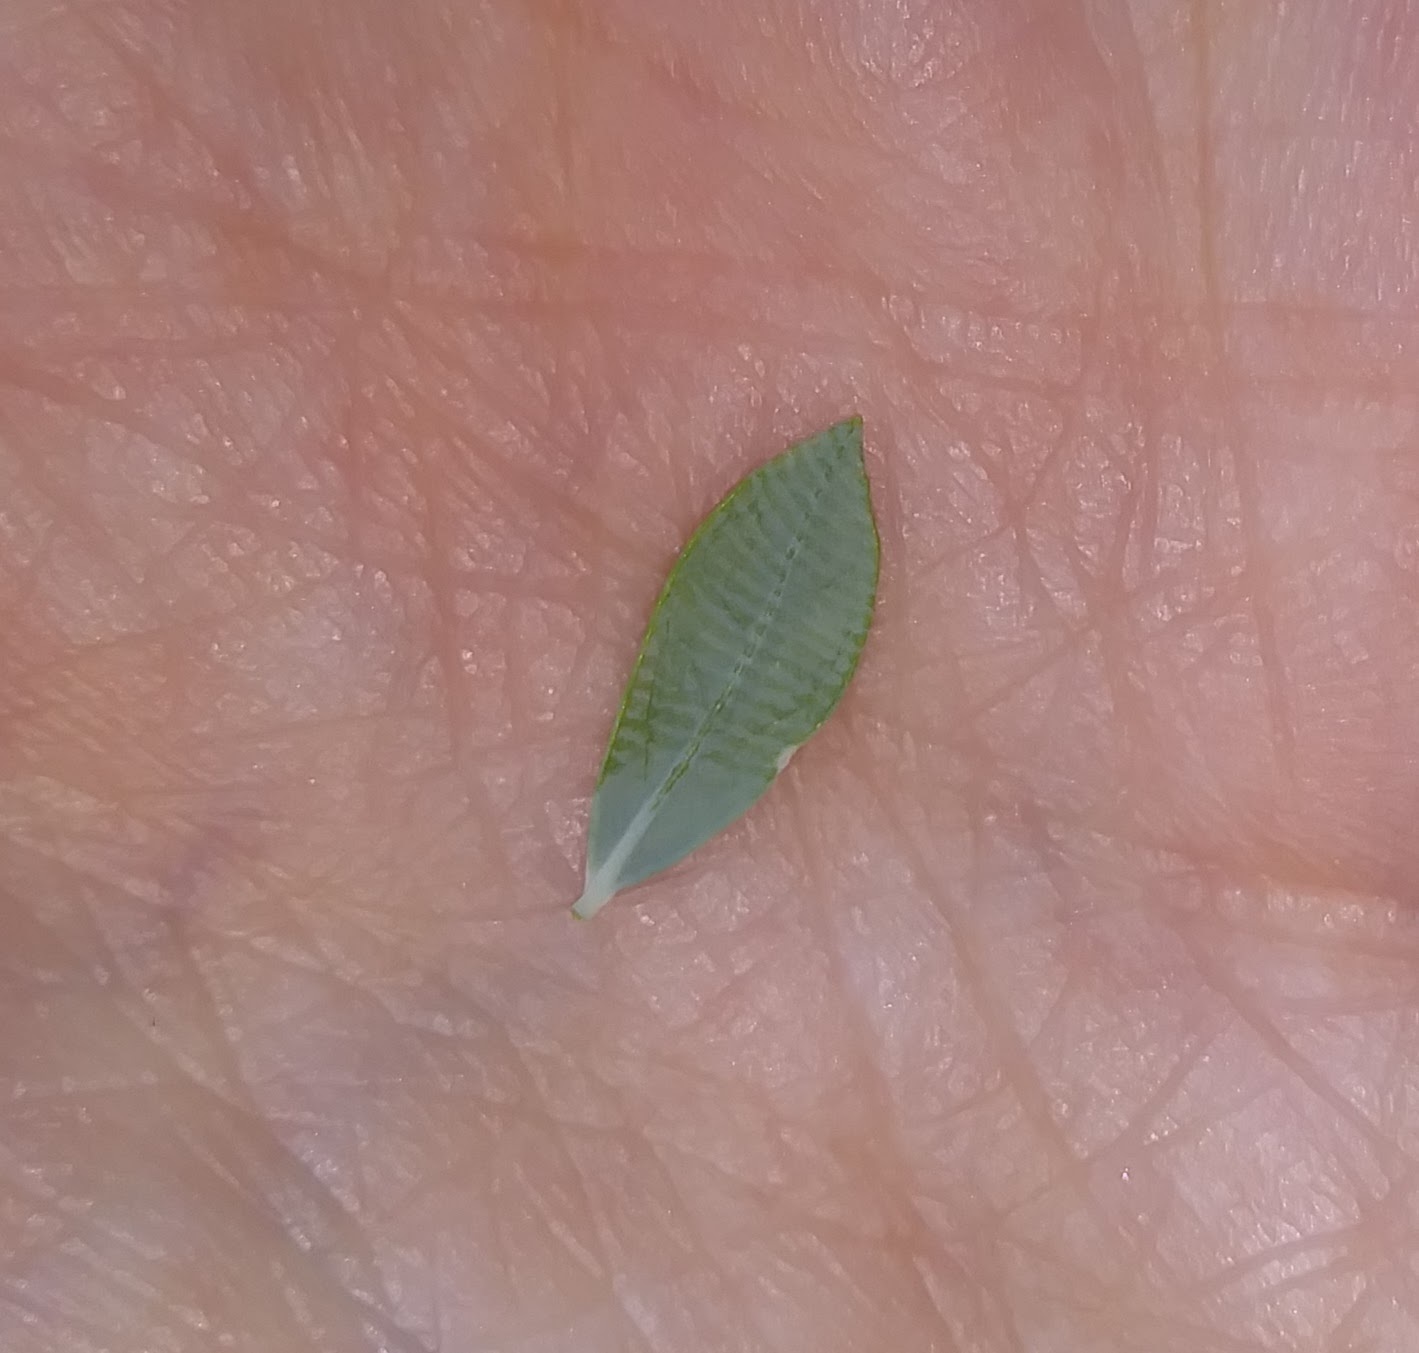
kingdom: Plantae
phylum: Tracheophyta
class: Magnoliopsida
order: Ericales
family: Ericaceae
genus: Vaccinium
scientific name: Vaccinium darrowii
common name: Darrow's blueberry
